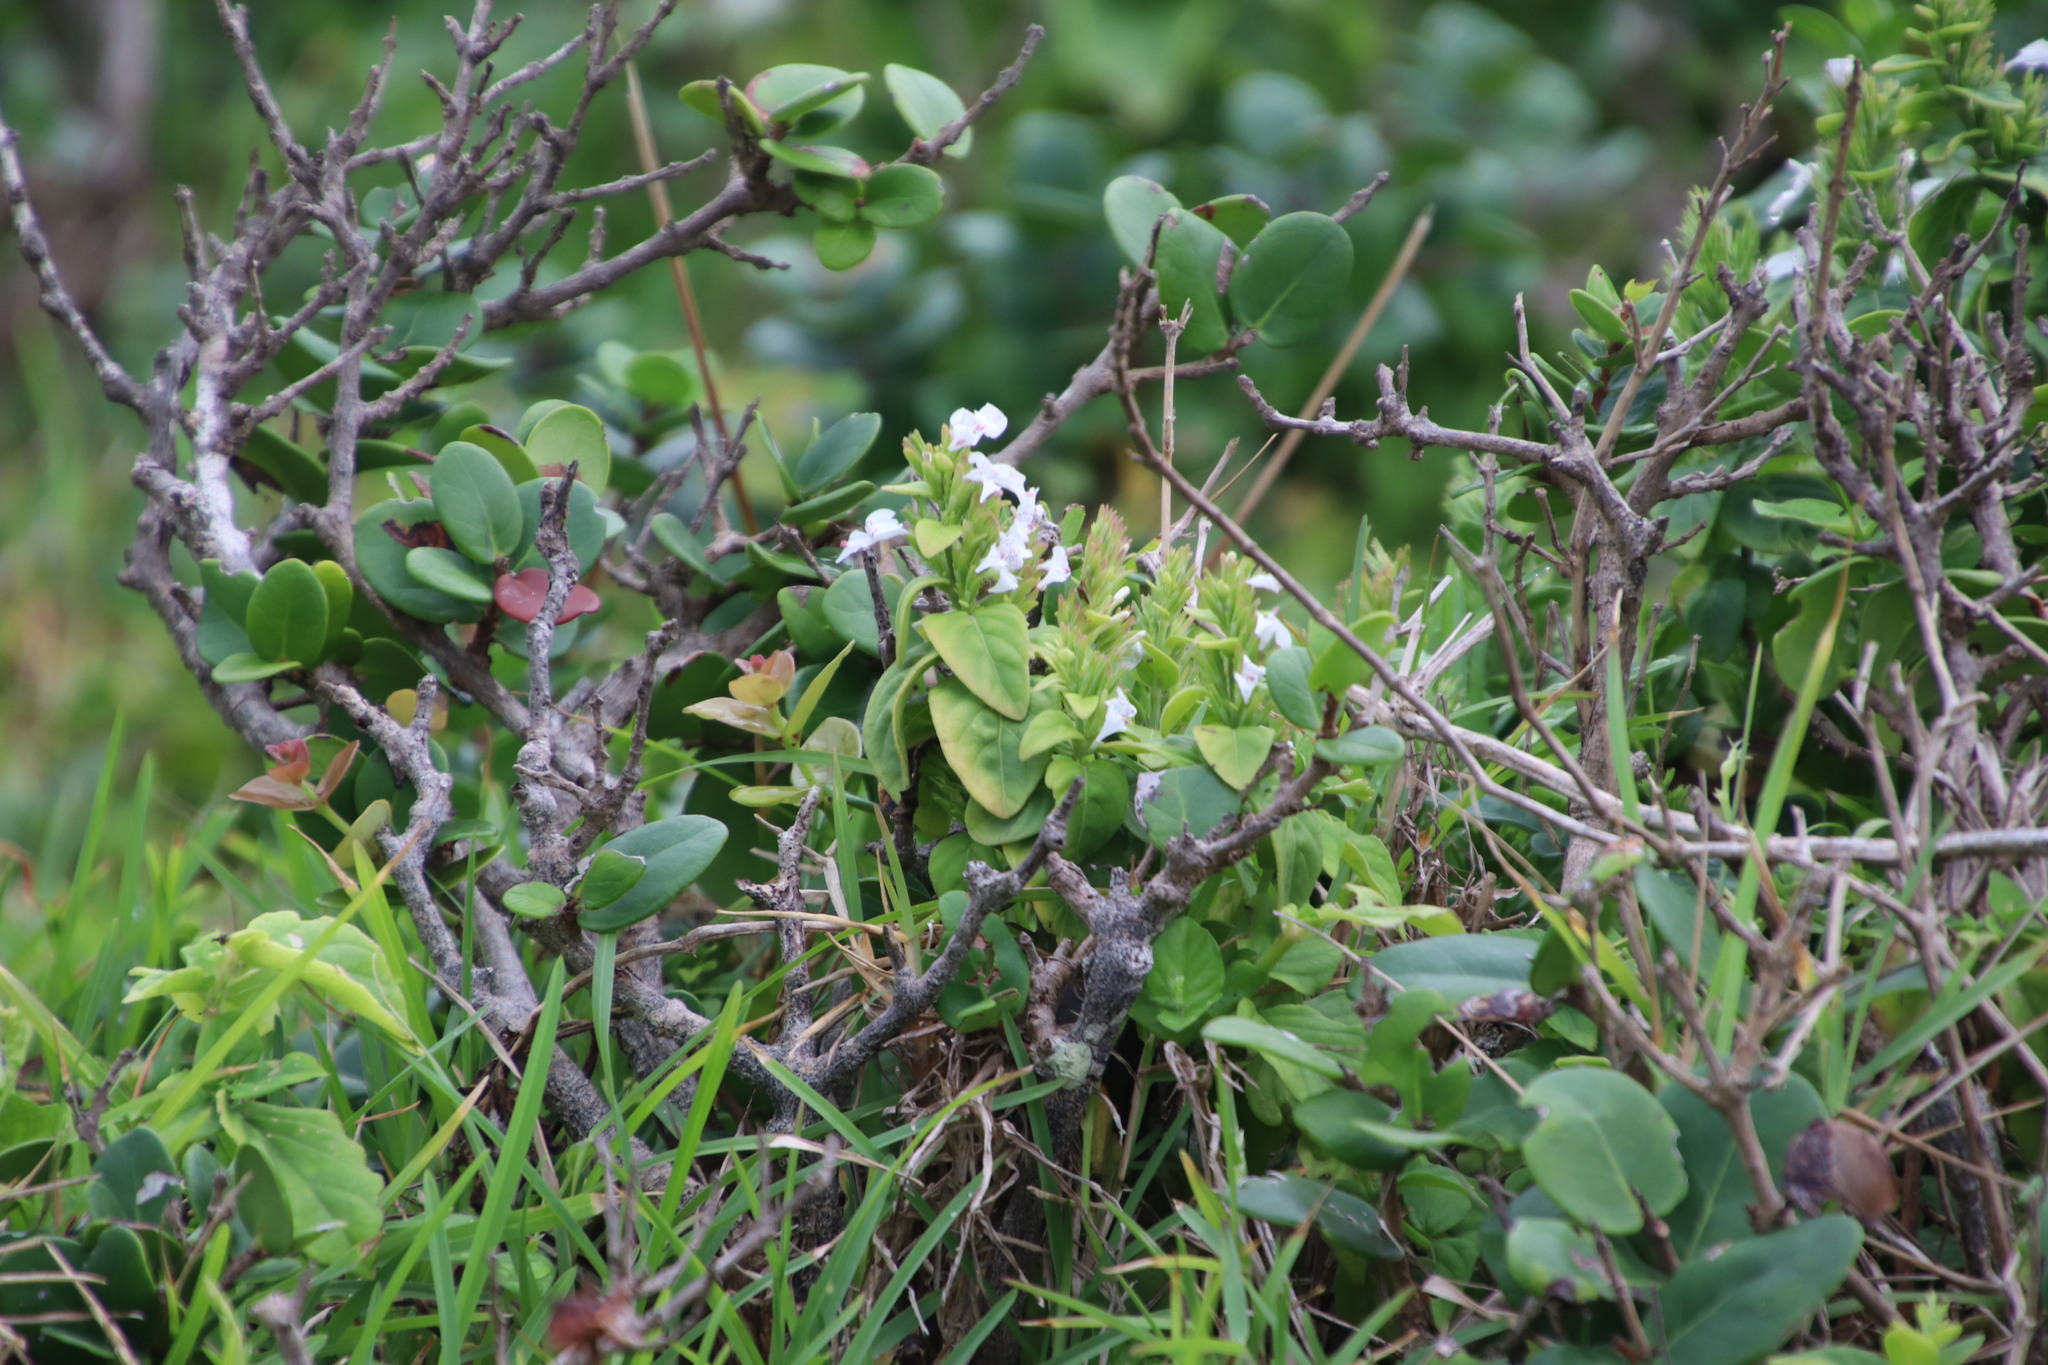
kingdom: Plantae
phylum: Tracheophyta
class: Magnoliopsida
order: Lamiales
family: Acanthaceae
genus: Hypoestes
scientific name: Hypoestes forskaolii
